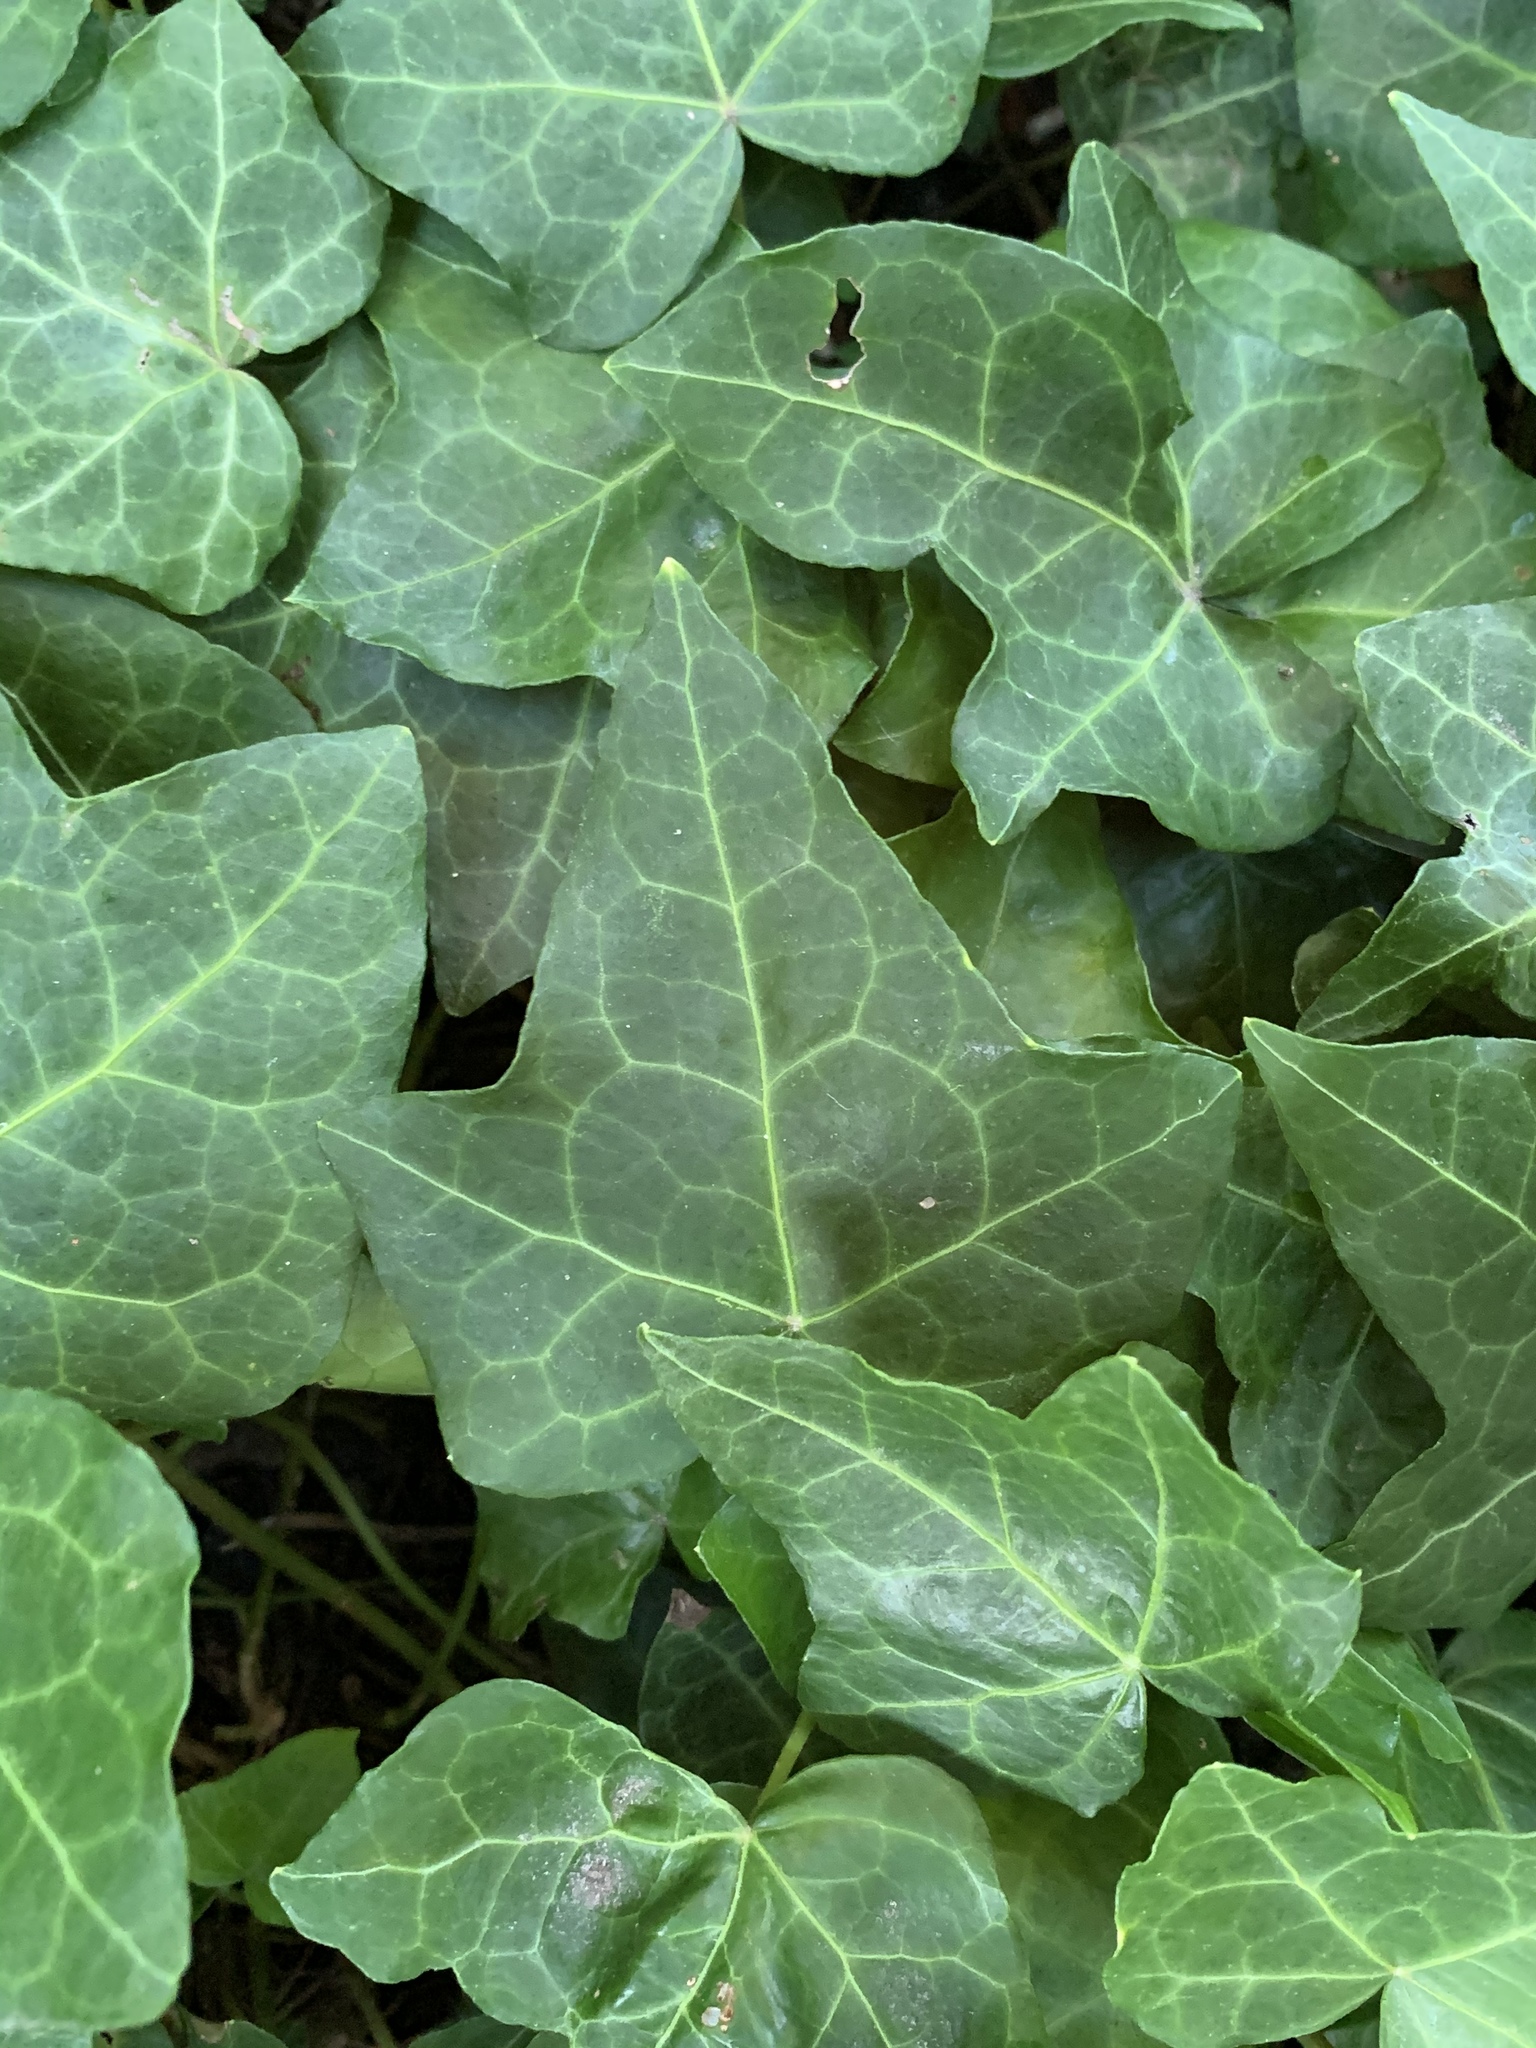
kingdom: Plantae
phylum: Tracheophyta
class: Magnoliopsida
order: Apiales
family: Araliaceae
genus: Hedera
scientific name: Hedera helix
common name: Ivy
